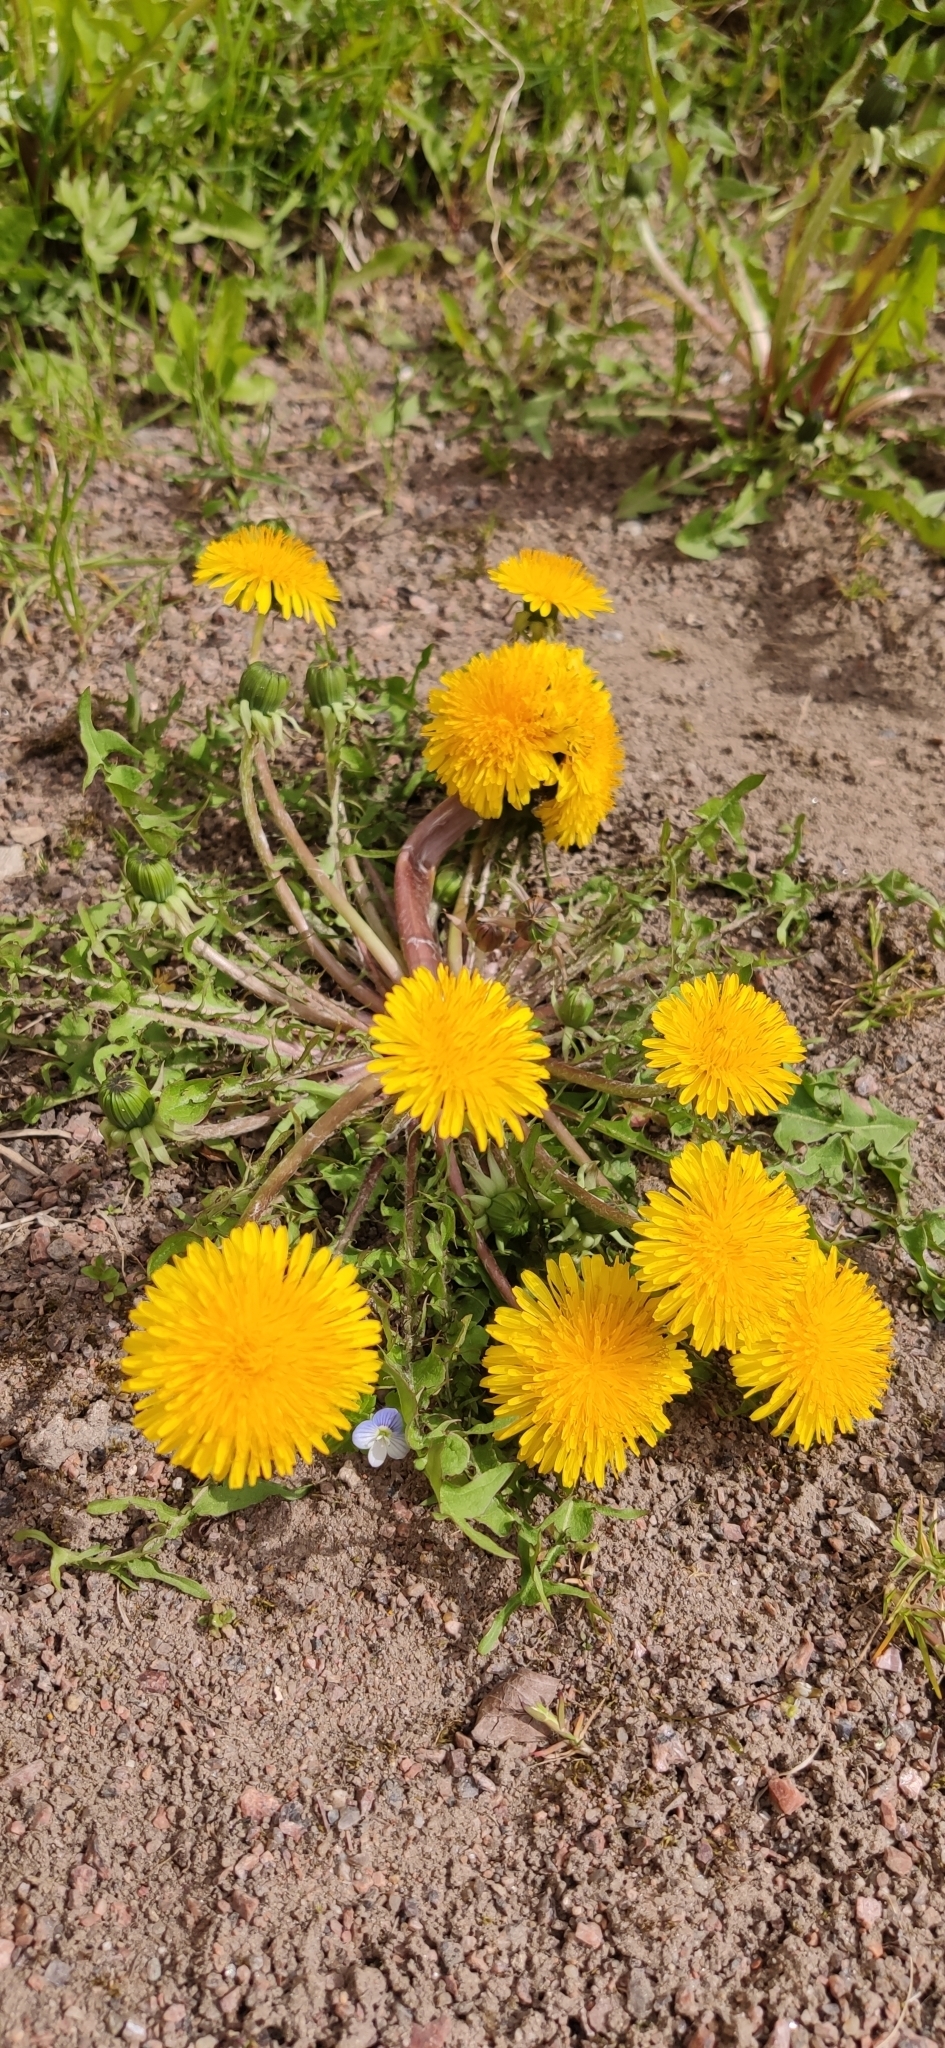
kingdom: Plantae
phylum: Tracheophyta
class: Magnoliopsida
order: Asterales
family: Asteraceae
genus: Taraxacum
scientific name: Taraxacum officinale
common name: Common dandelion
